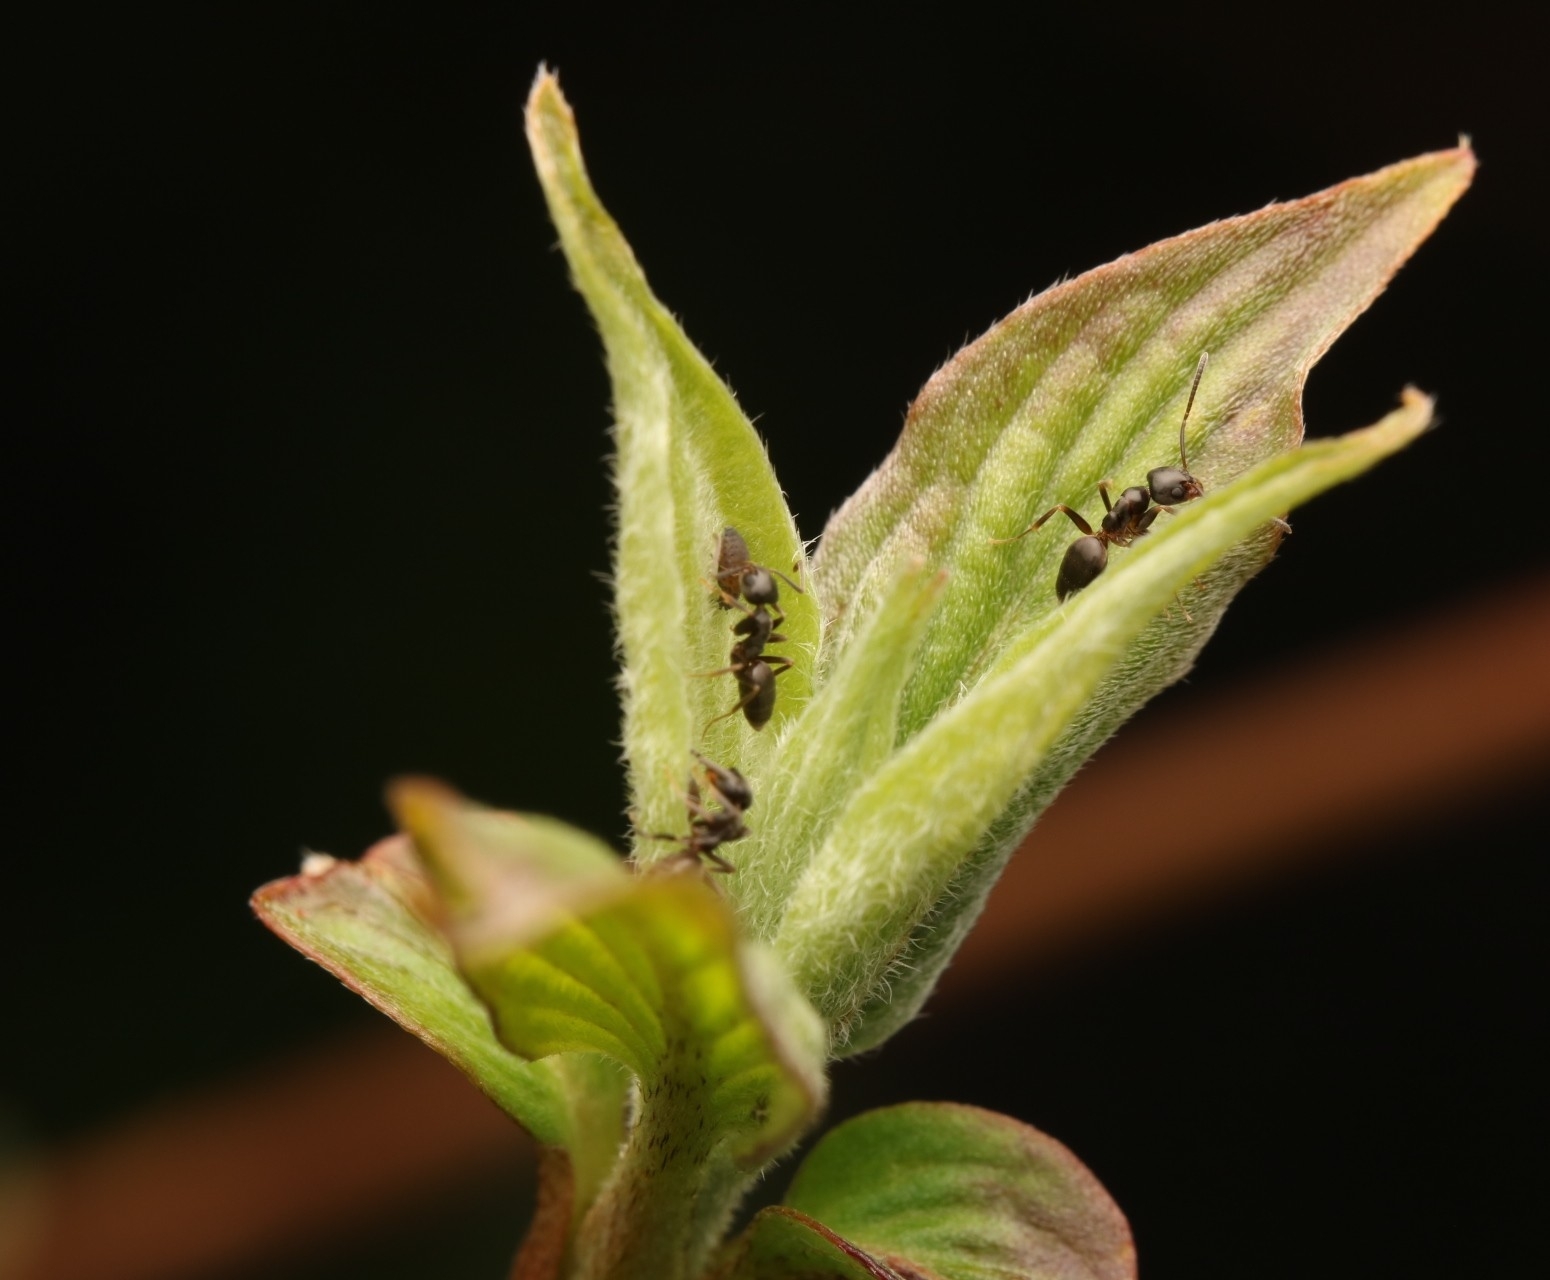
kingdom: Animalia
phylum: Arthropoda
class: Insecta
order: Hymenoptera
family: Formicidae
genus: Tapinoma
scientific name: Tapinoma sessile
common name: Odorous house ant
